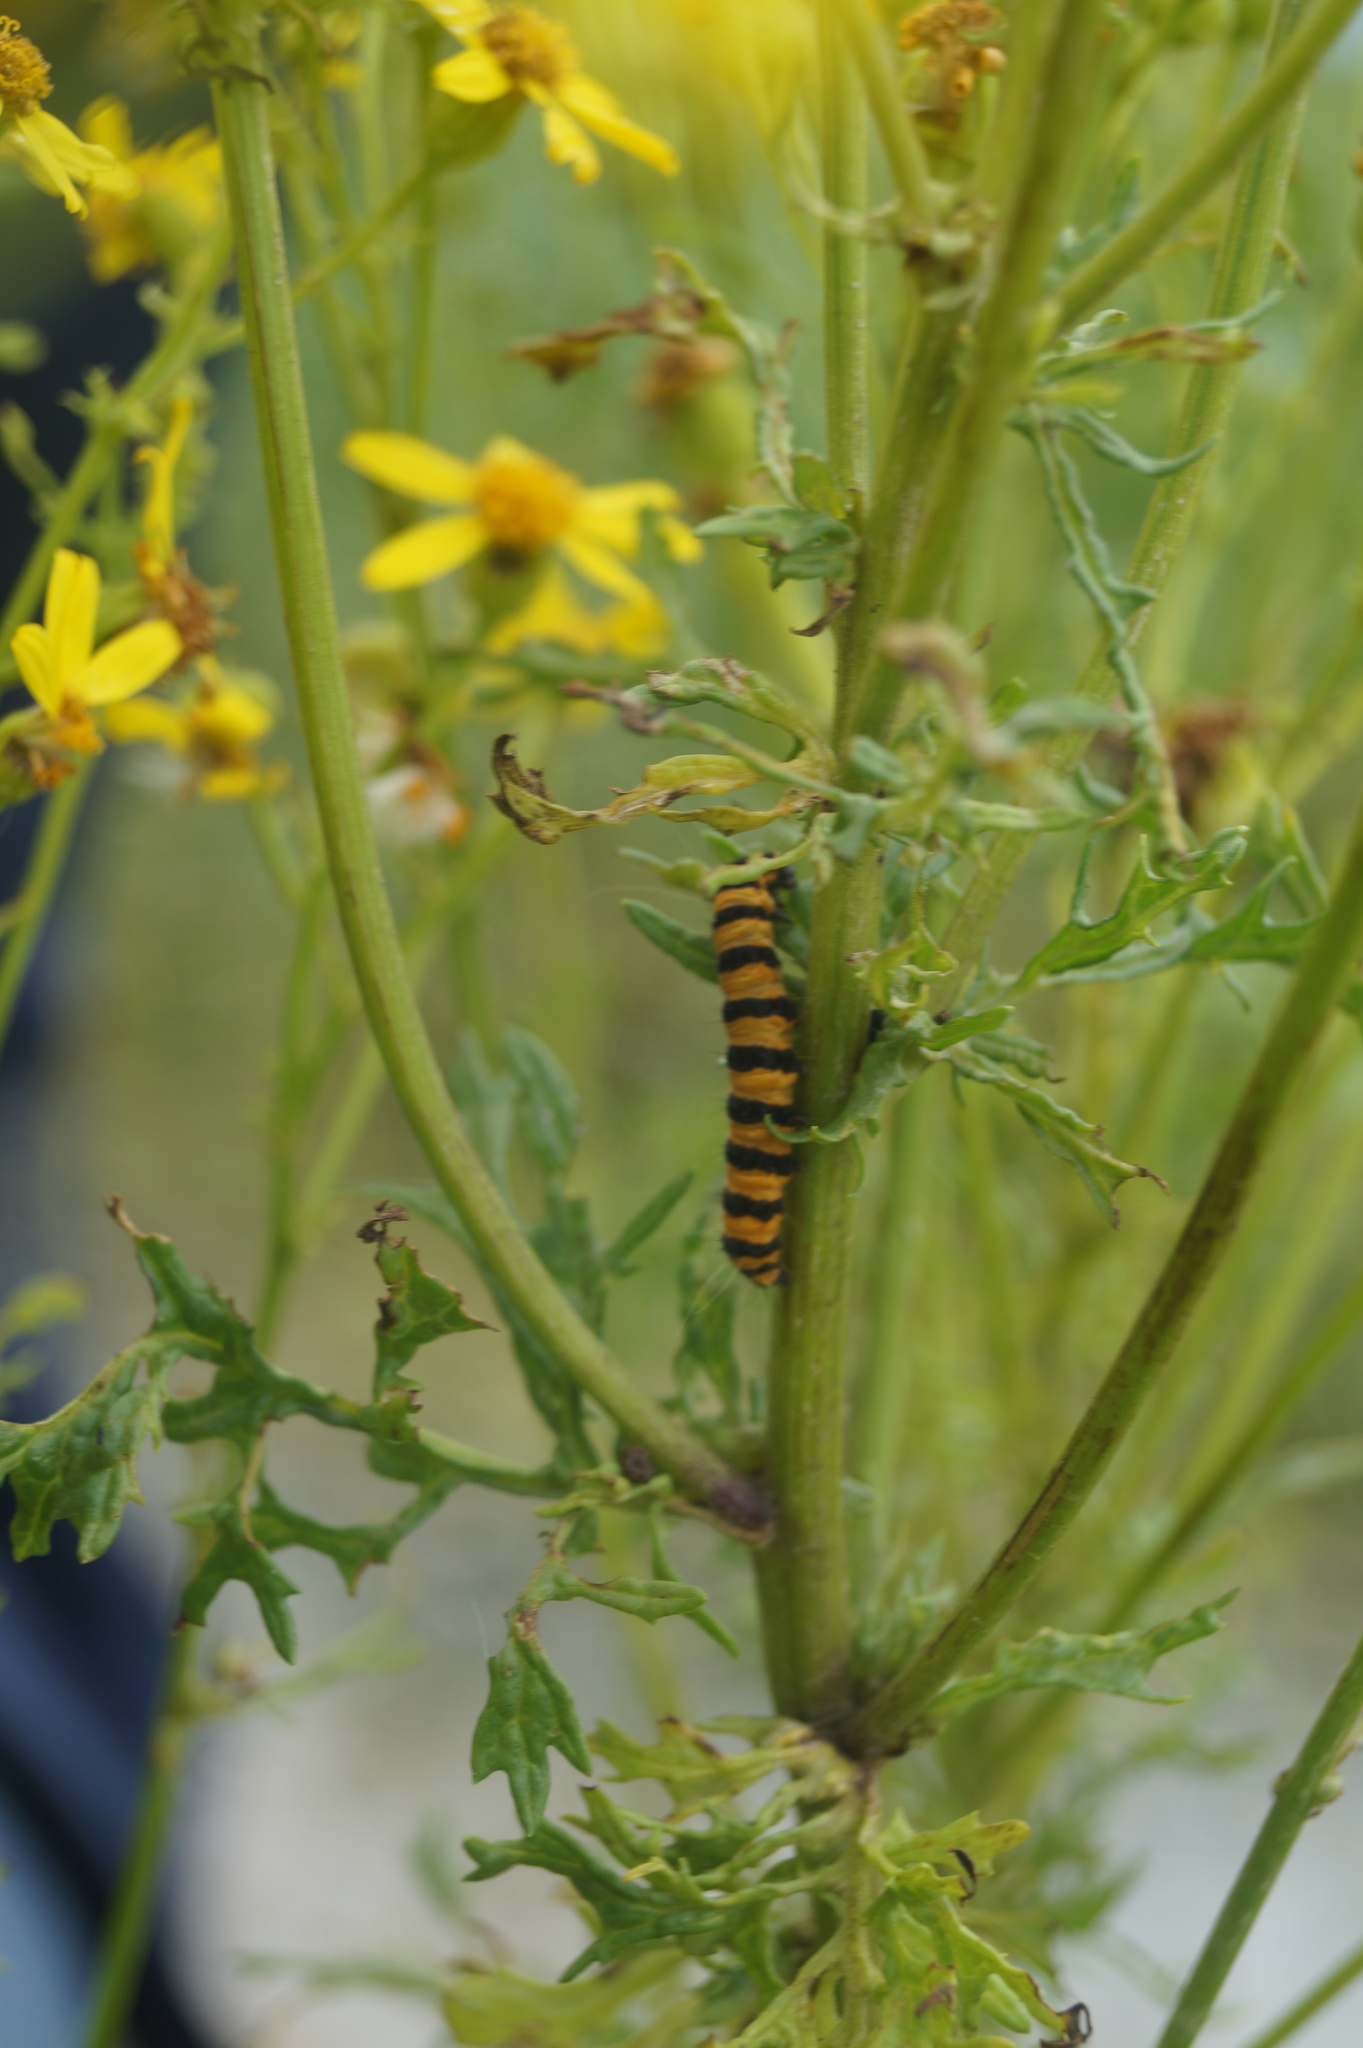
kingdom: Animalia
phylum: Arthropoda
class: Insecta
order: Lepidoptera
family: Erebidae
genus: Tyria
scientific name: Tyria jacobaeae
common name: Cinnabar
